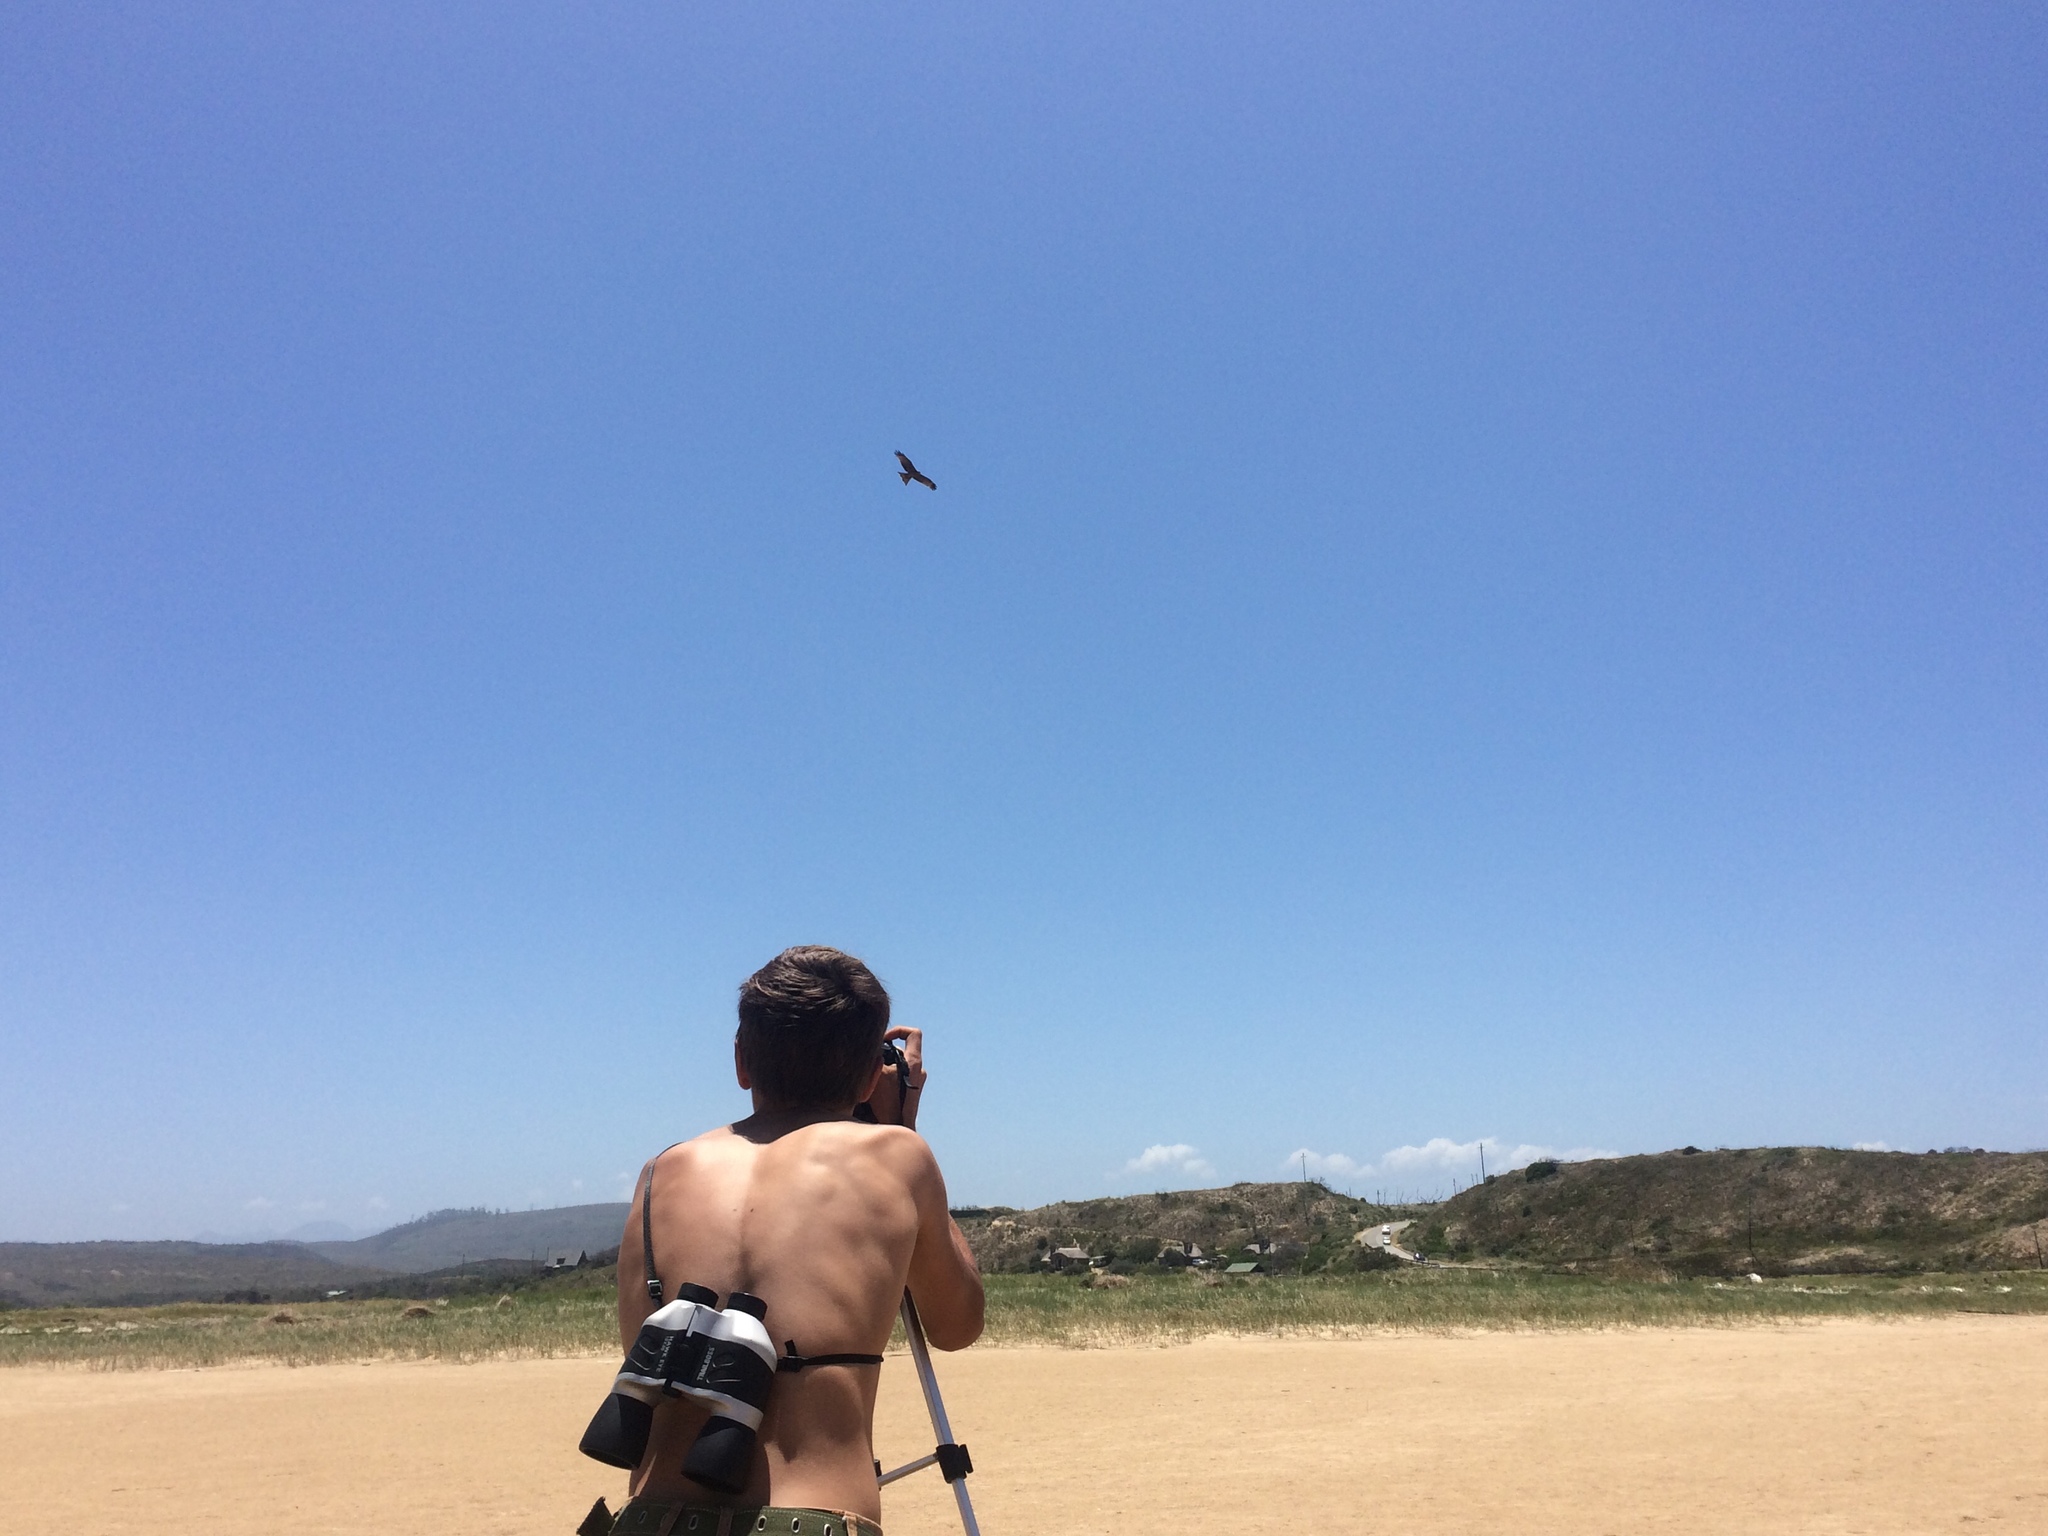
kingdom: Animalia
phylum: Chordata
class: Aves
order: Accipitriformes
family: Accipitridae
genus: Milvus
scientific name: Milvus migrans
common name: Black kite
